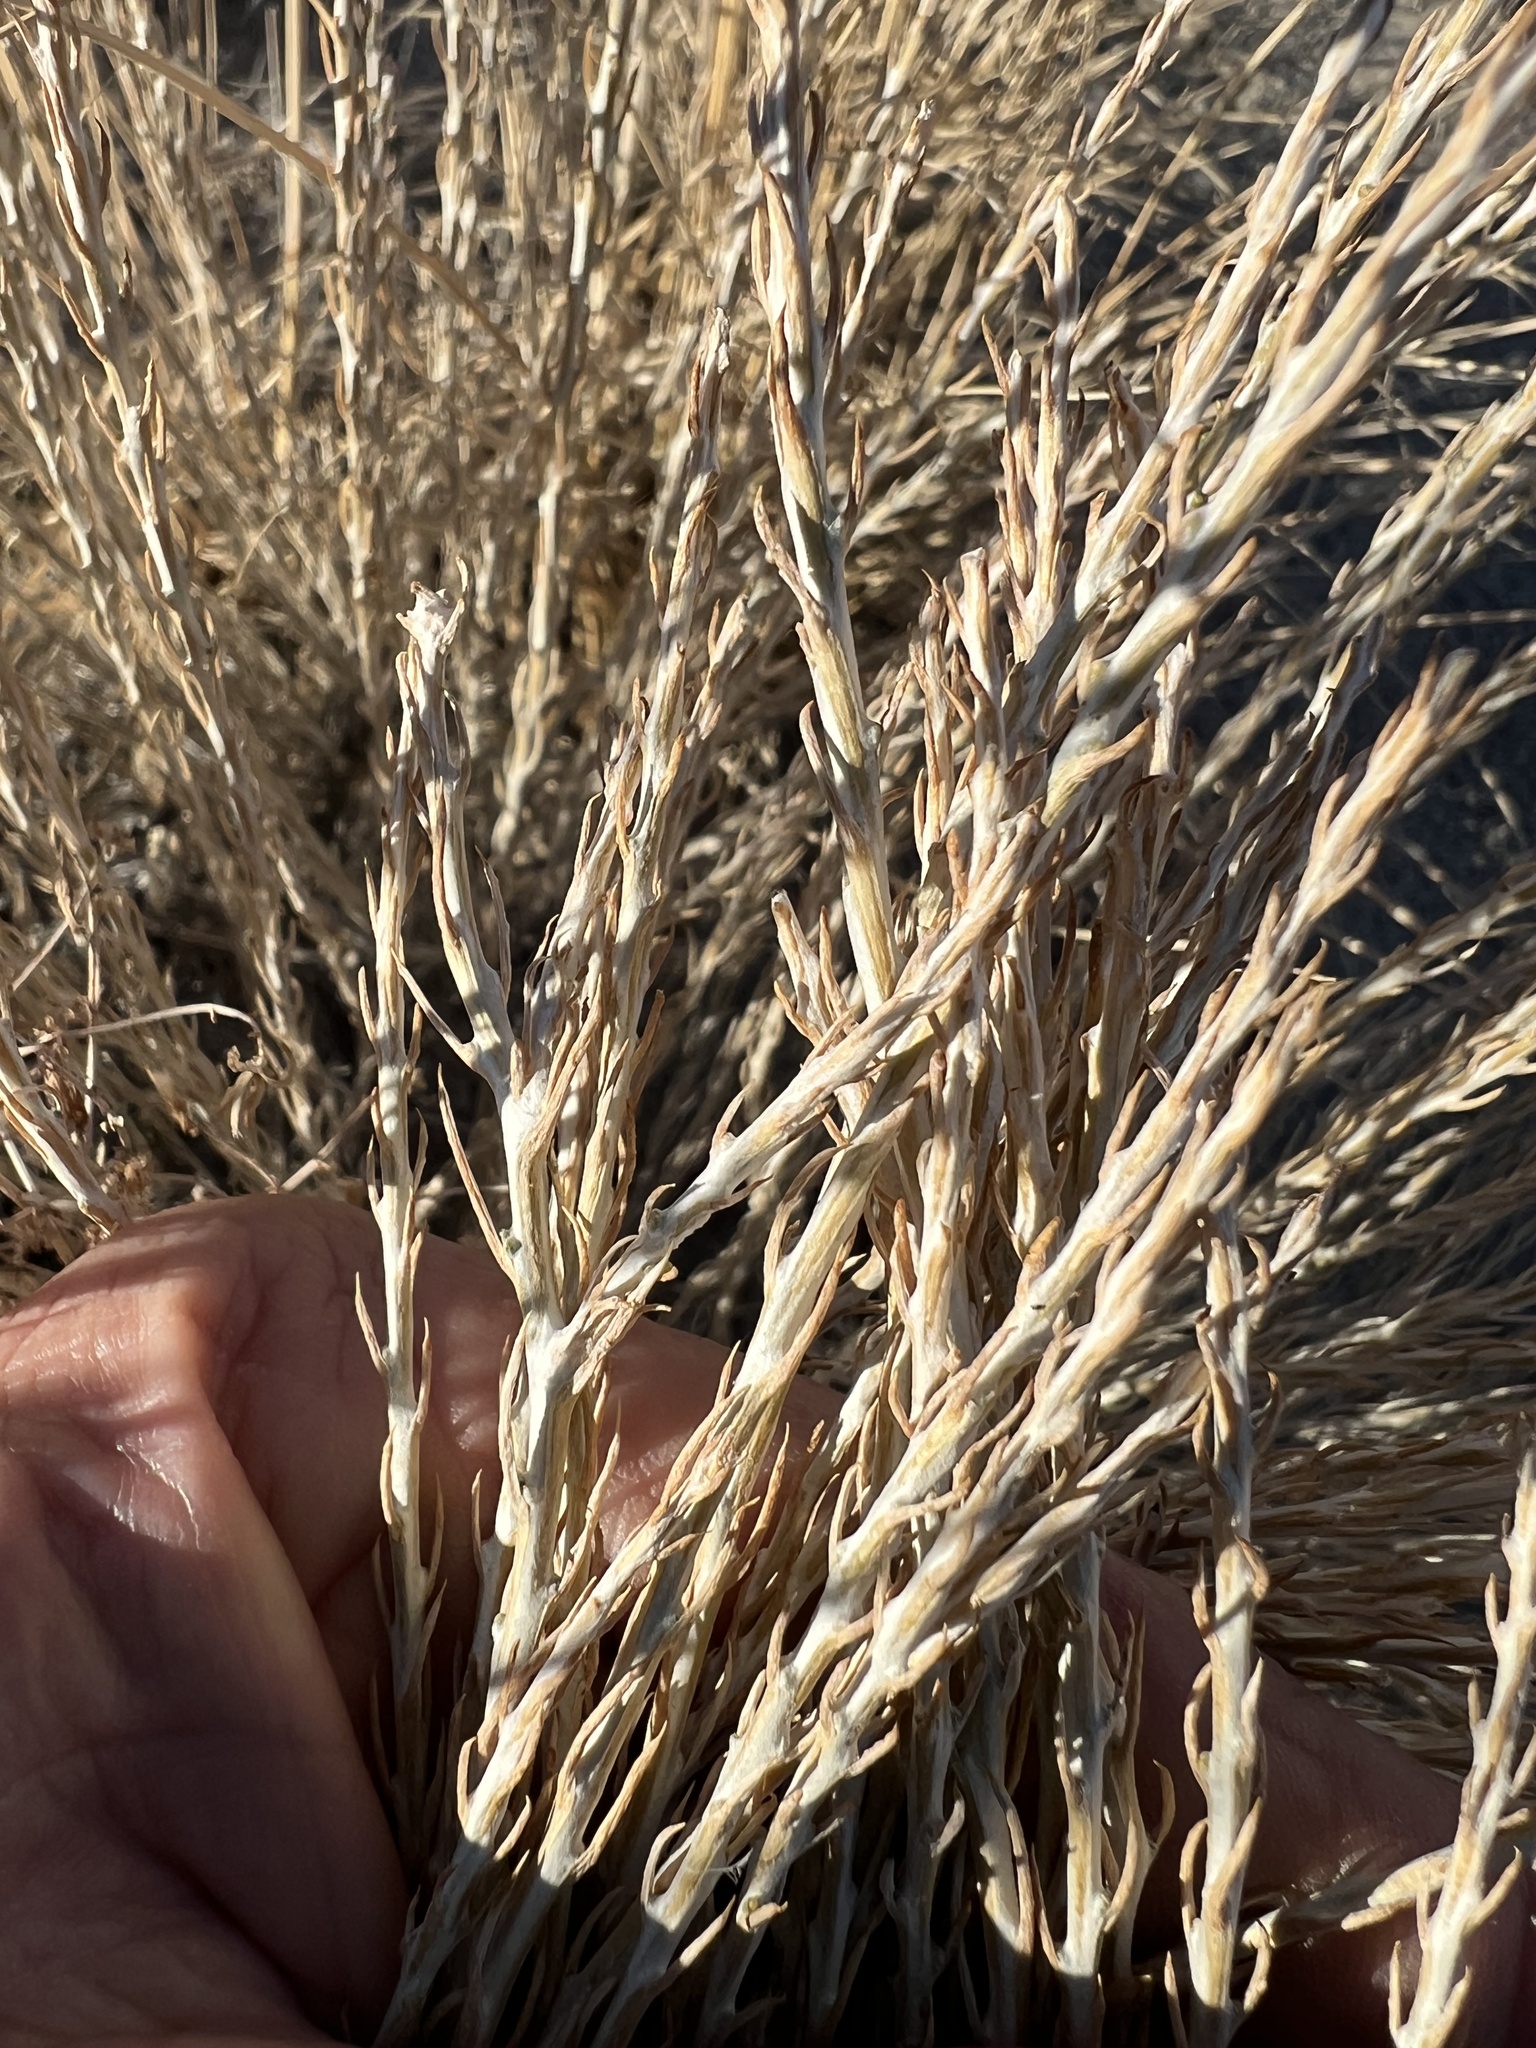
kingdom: Plantae
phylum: Tracheophyta
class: Magnoliopsida
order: Asterales
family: Asteraceae
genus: Tetradymia
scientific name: Tetradymia glabrata
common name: Smooth tetradymia
